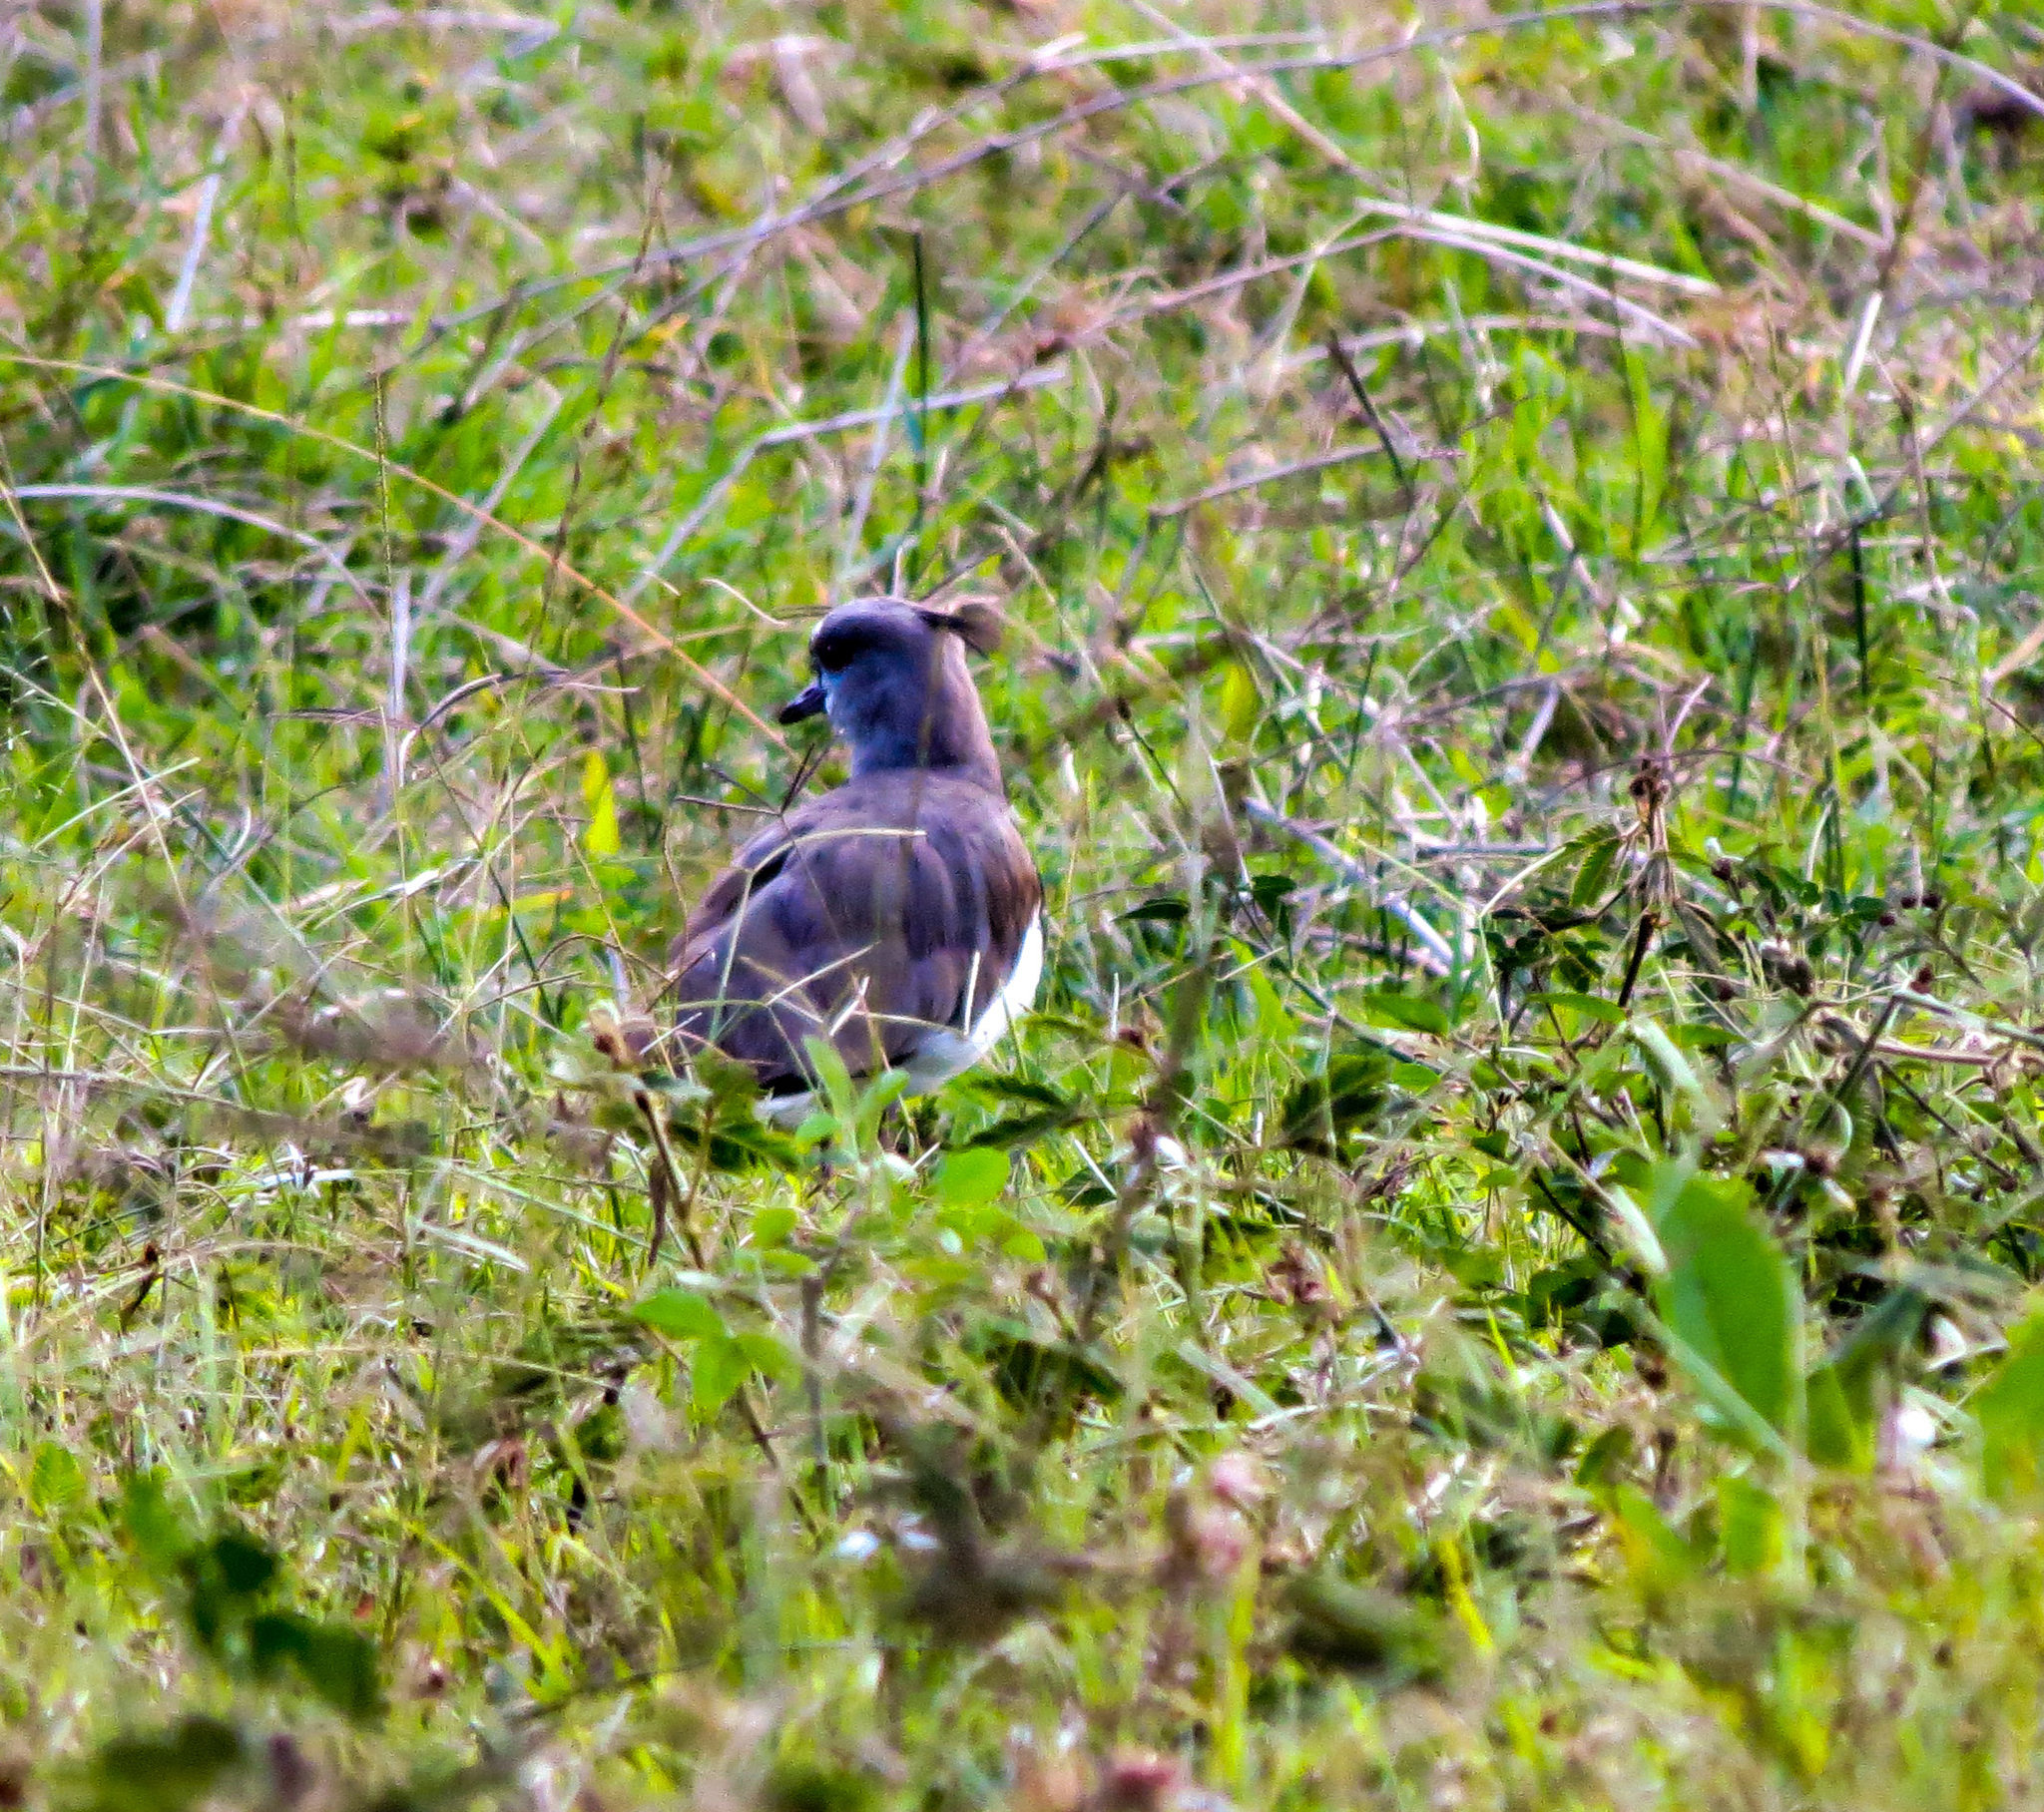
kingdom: Animalia
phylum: Chordata
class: Aves
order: Charadriiformes
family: Charadriidae
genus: Vanellus
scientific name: Vanellus chilensis
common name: Southern lapwing
